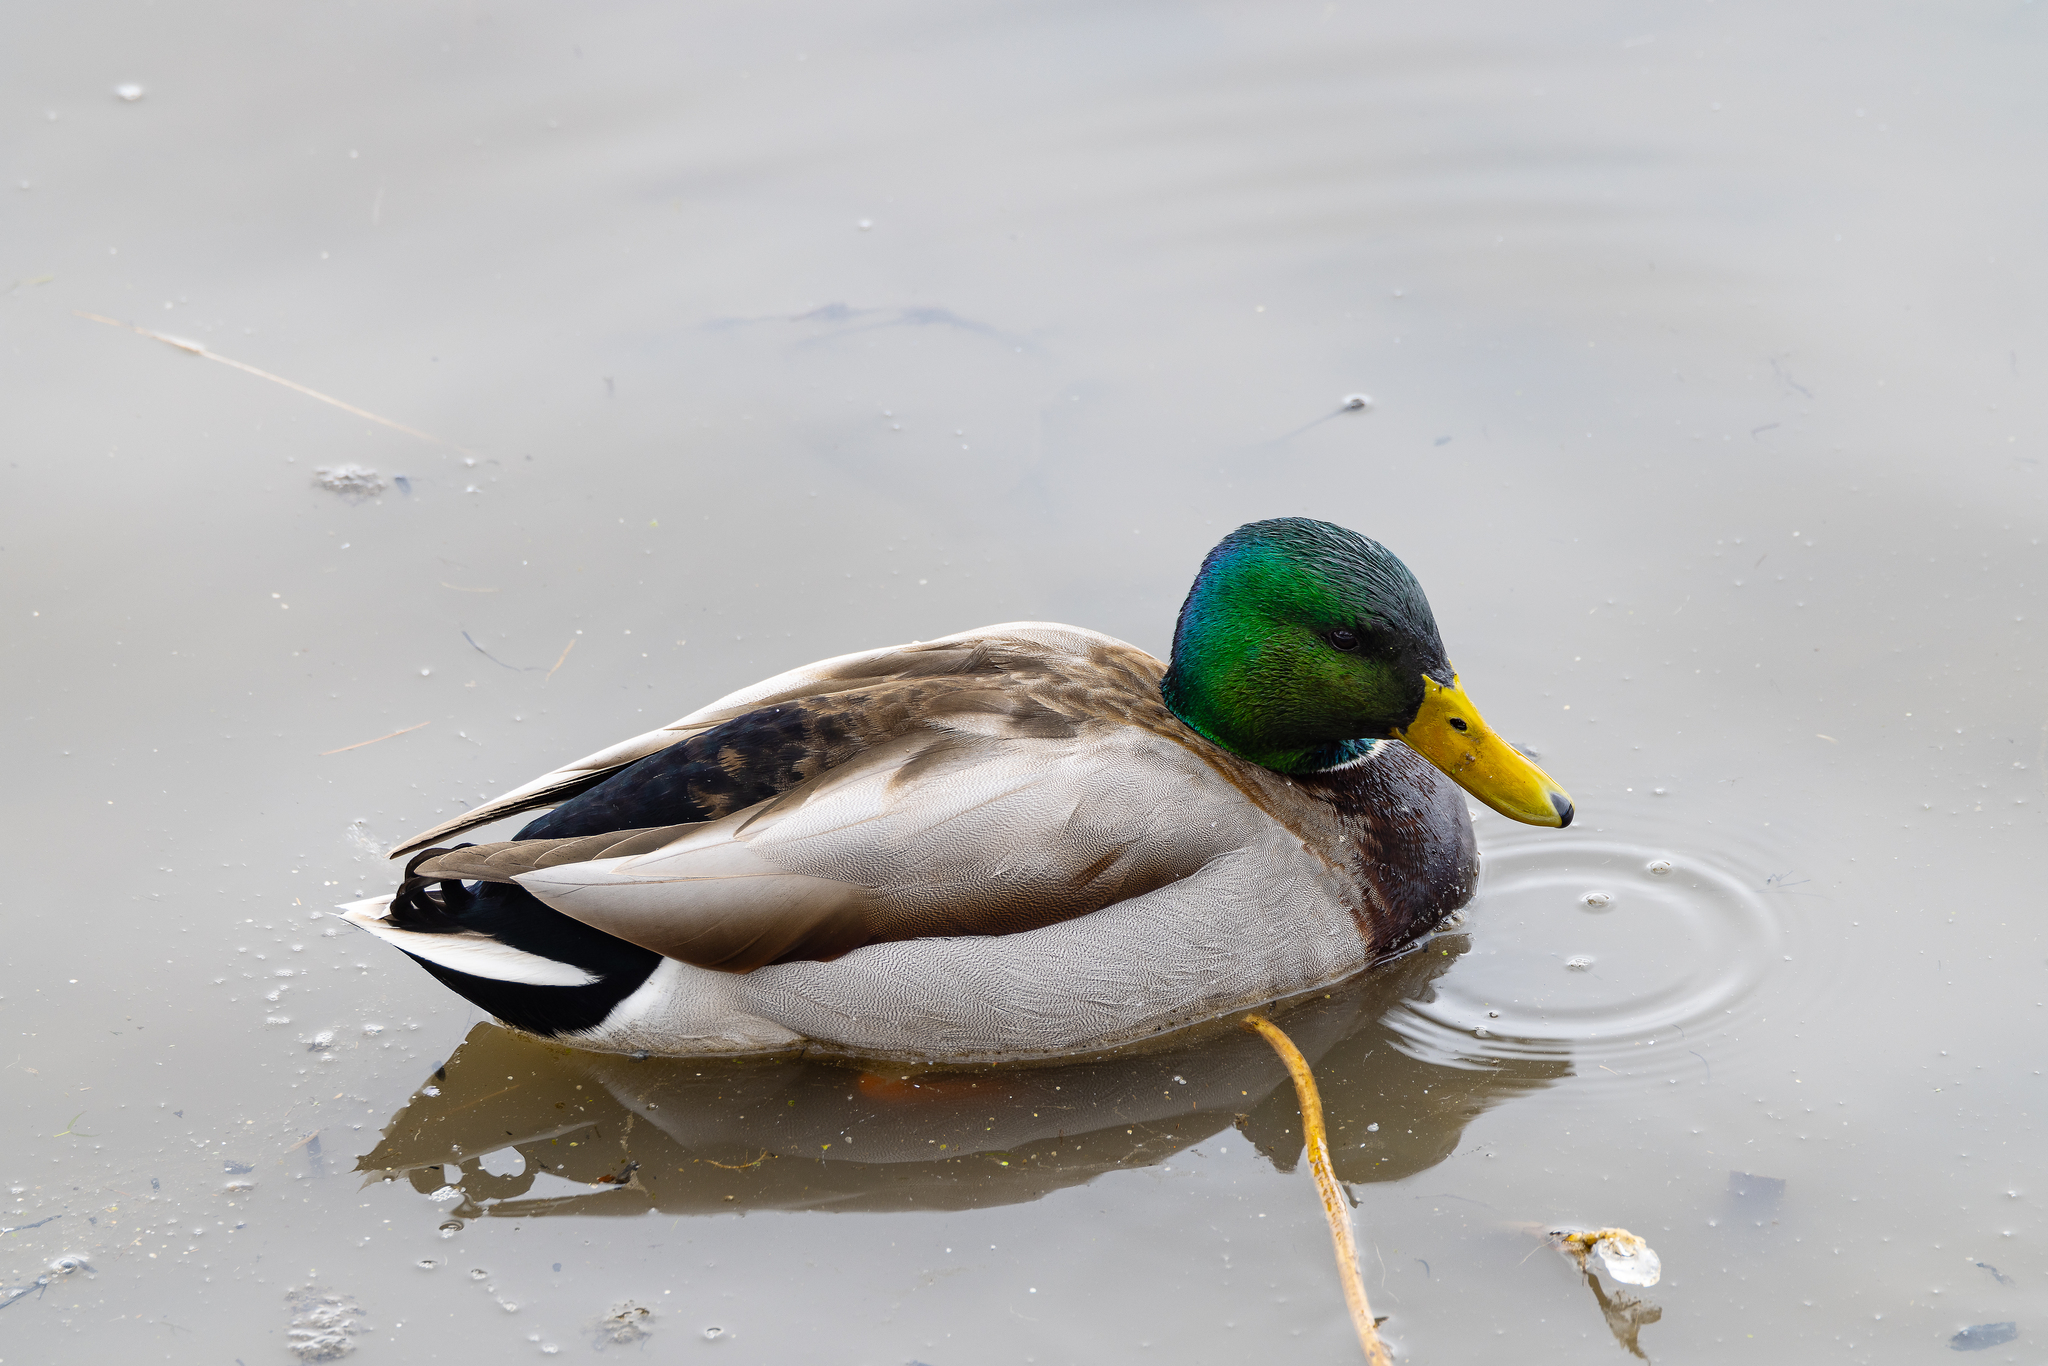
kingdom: Animalia
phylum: Chordata
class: Aves
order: Anseriformes
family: Anatidae
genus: Anas
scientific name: Anas platyrhynchos
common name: Mallard
